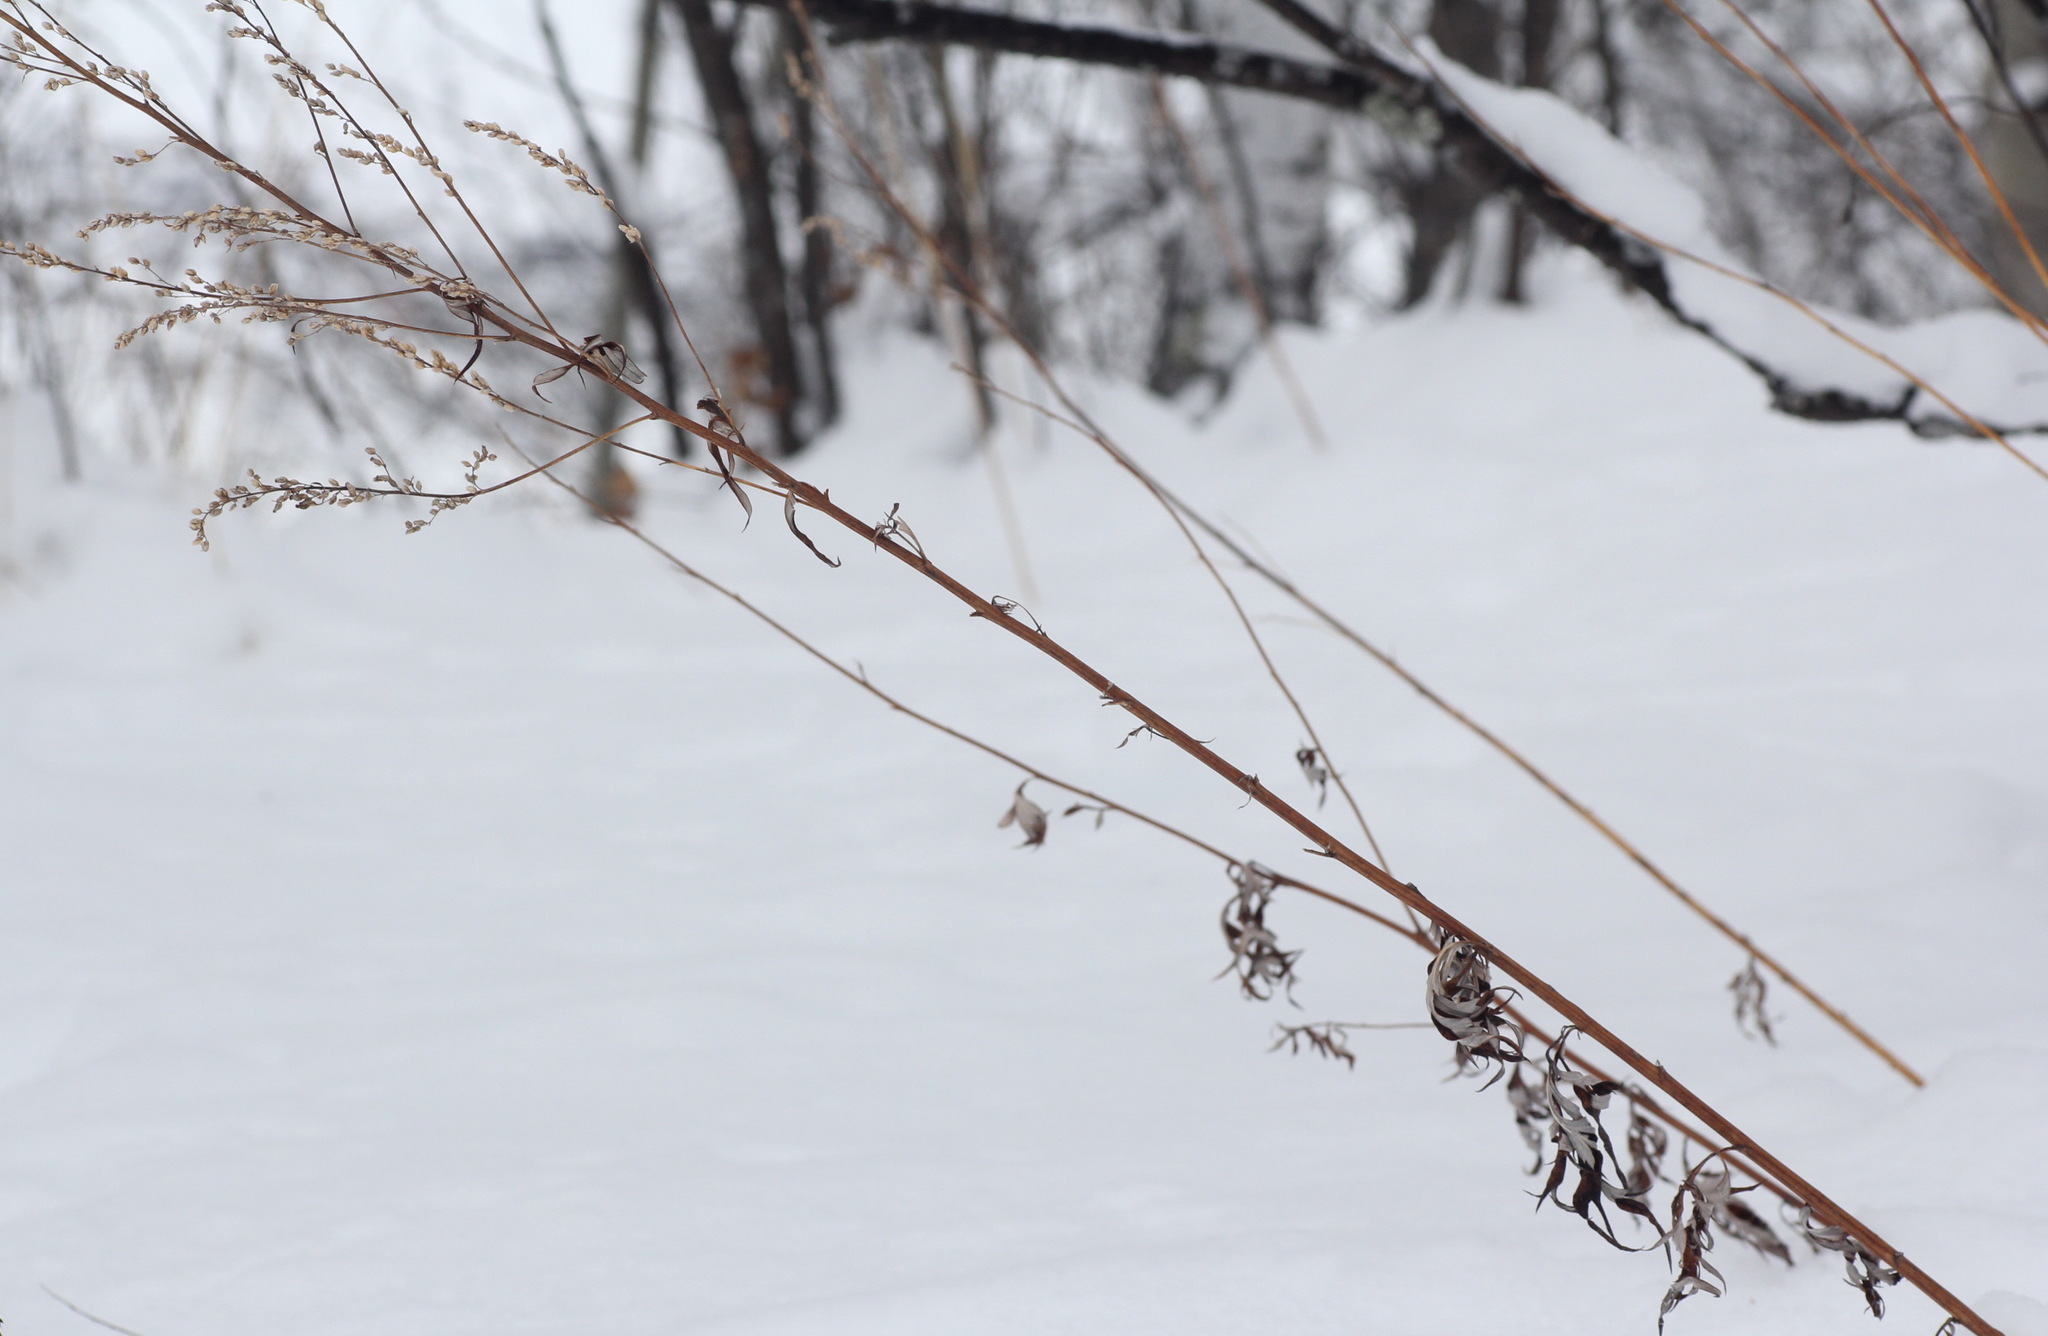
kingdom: Plantae
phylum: Tracheophyta
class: Magnoliopsida
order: Asterales
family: Asteraceae
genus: Artemisia
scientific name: Artemisia vulgaris
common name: Mugwort
